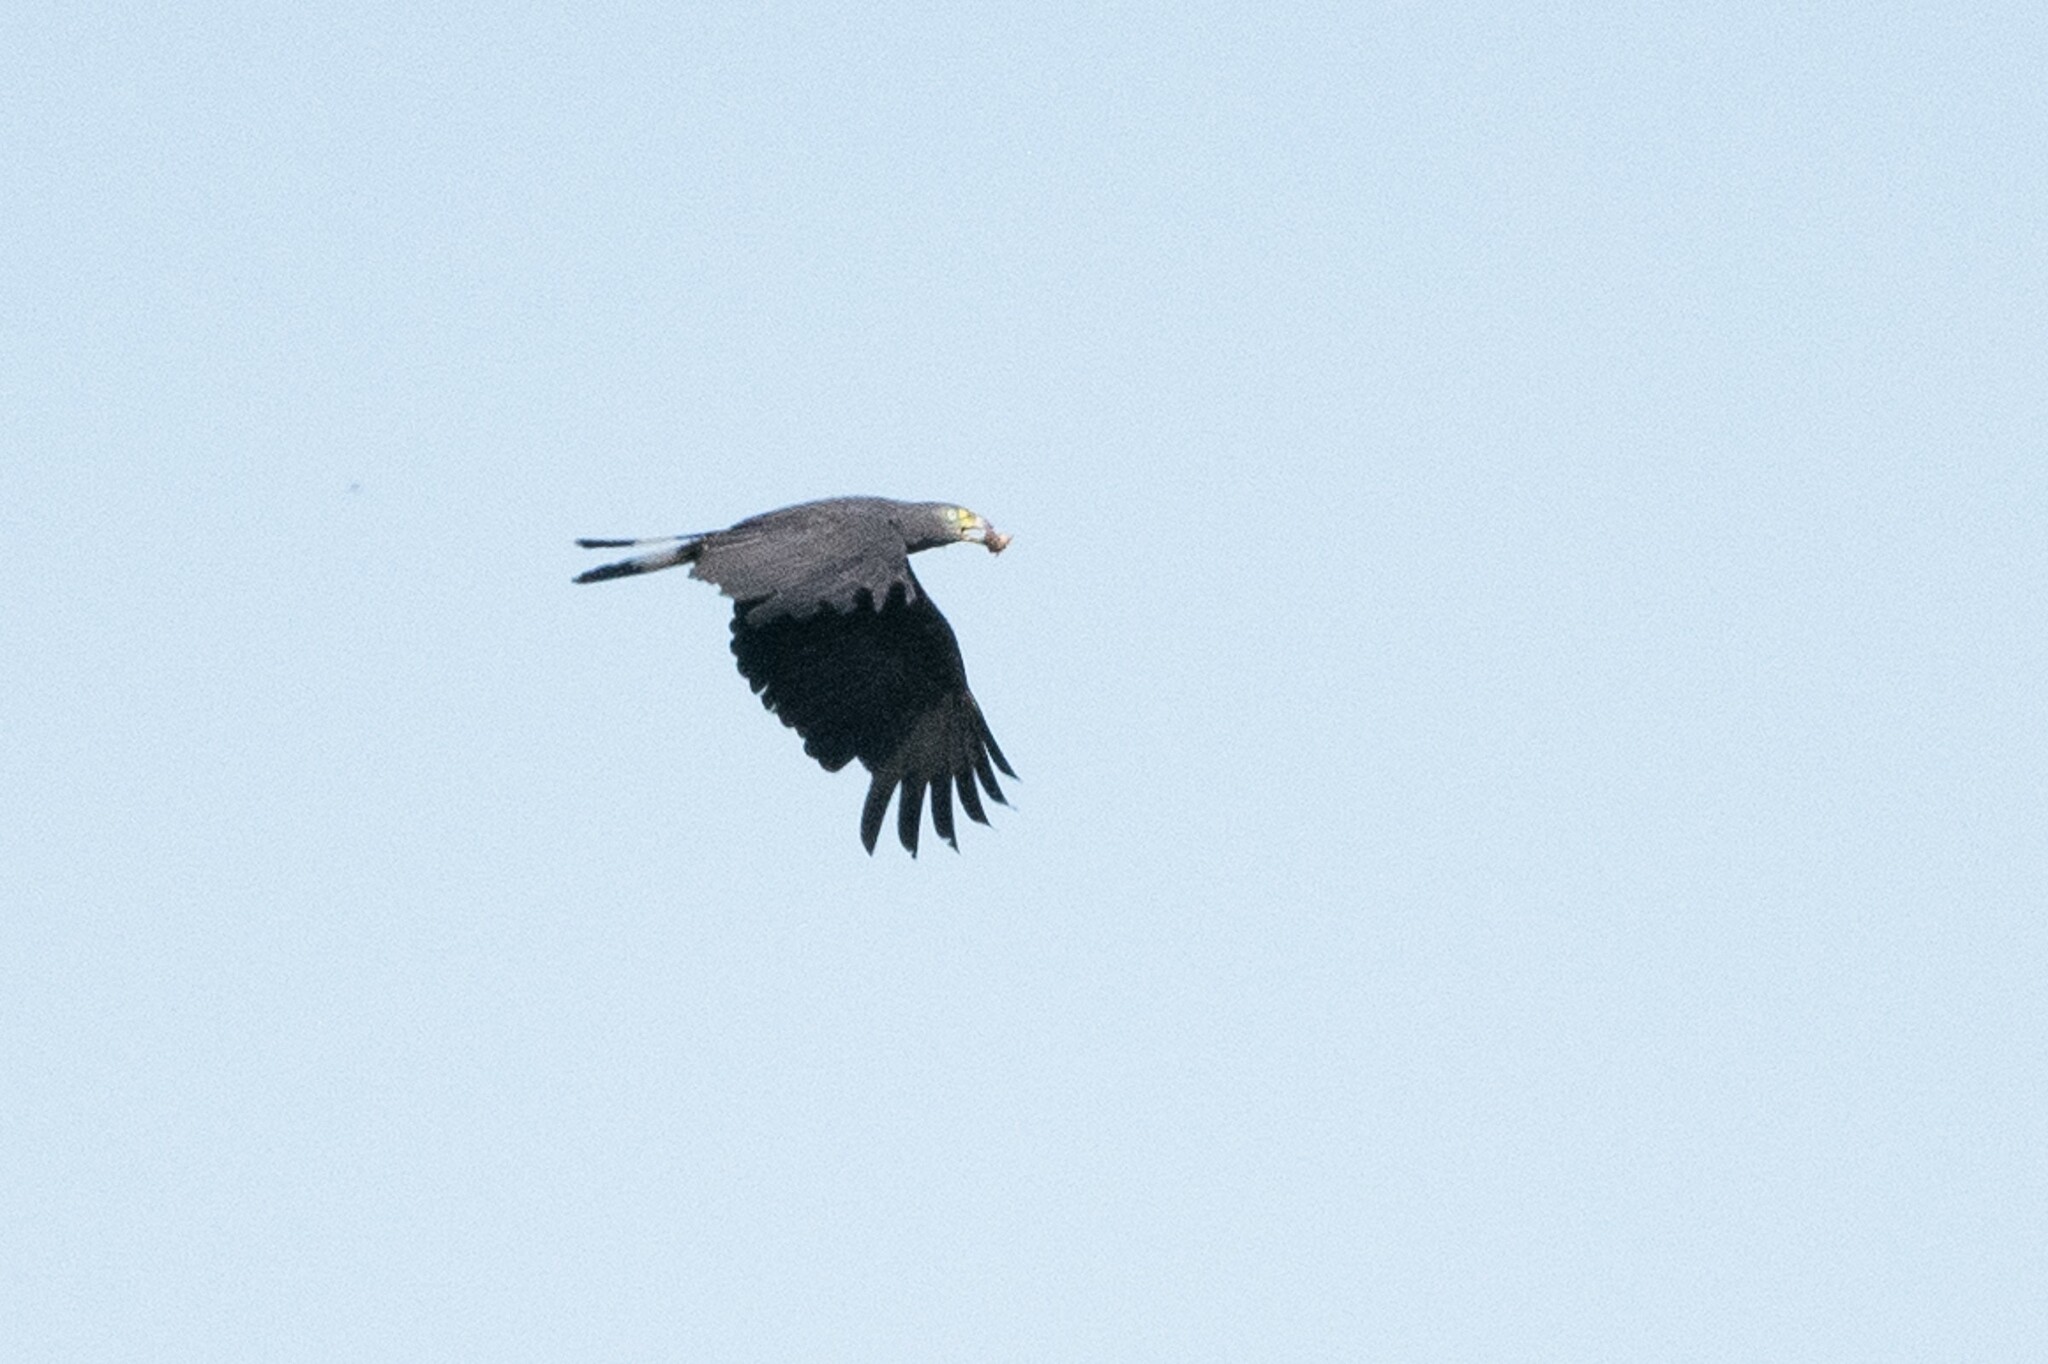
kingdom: Animalia
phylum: Chordata
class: Aves
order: Accipitriformes
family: Accipitridae
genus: Chondrohierax
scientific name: Chondrohierax uncinatus
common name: Hook-billed kite
